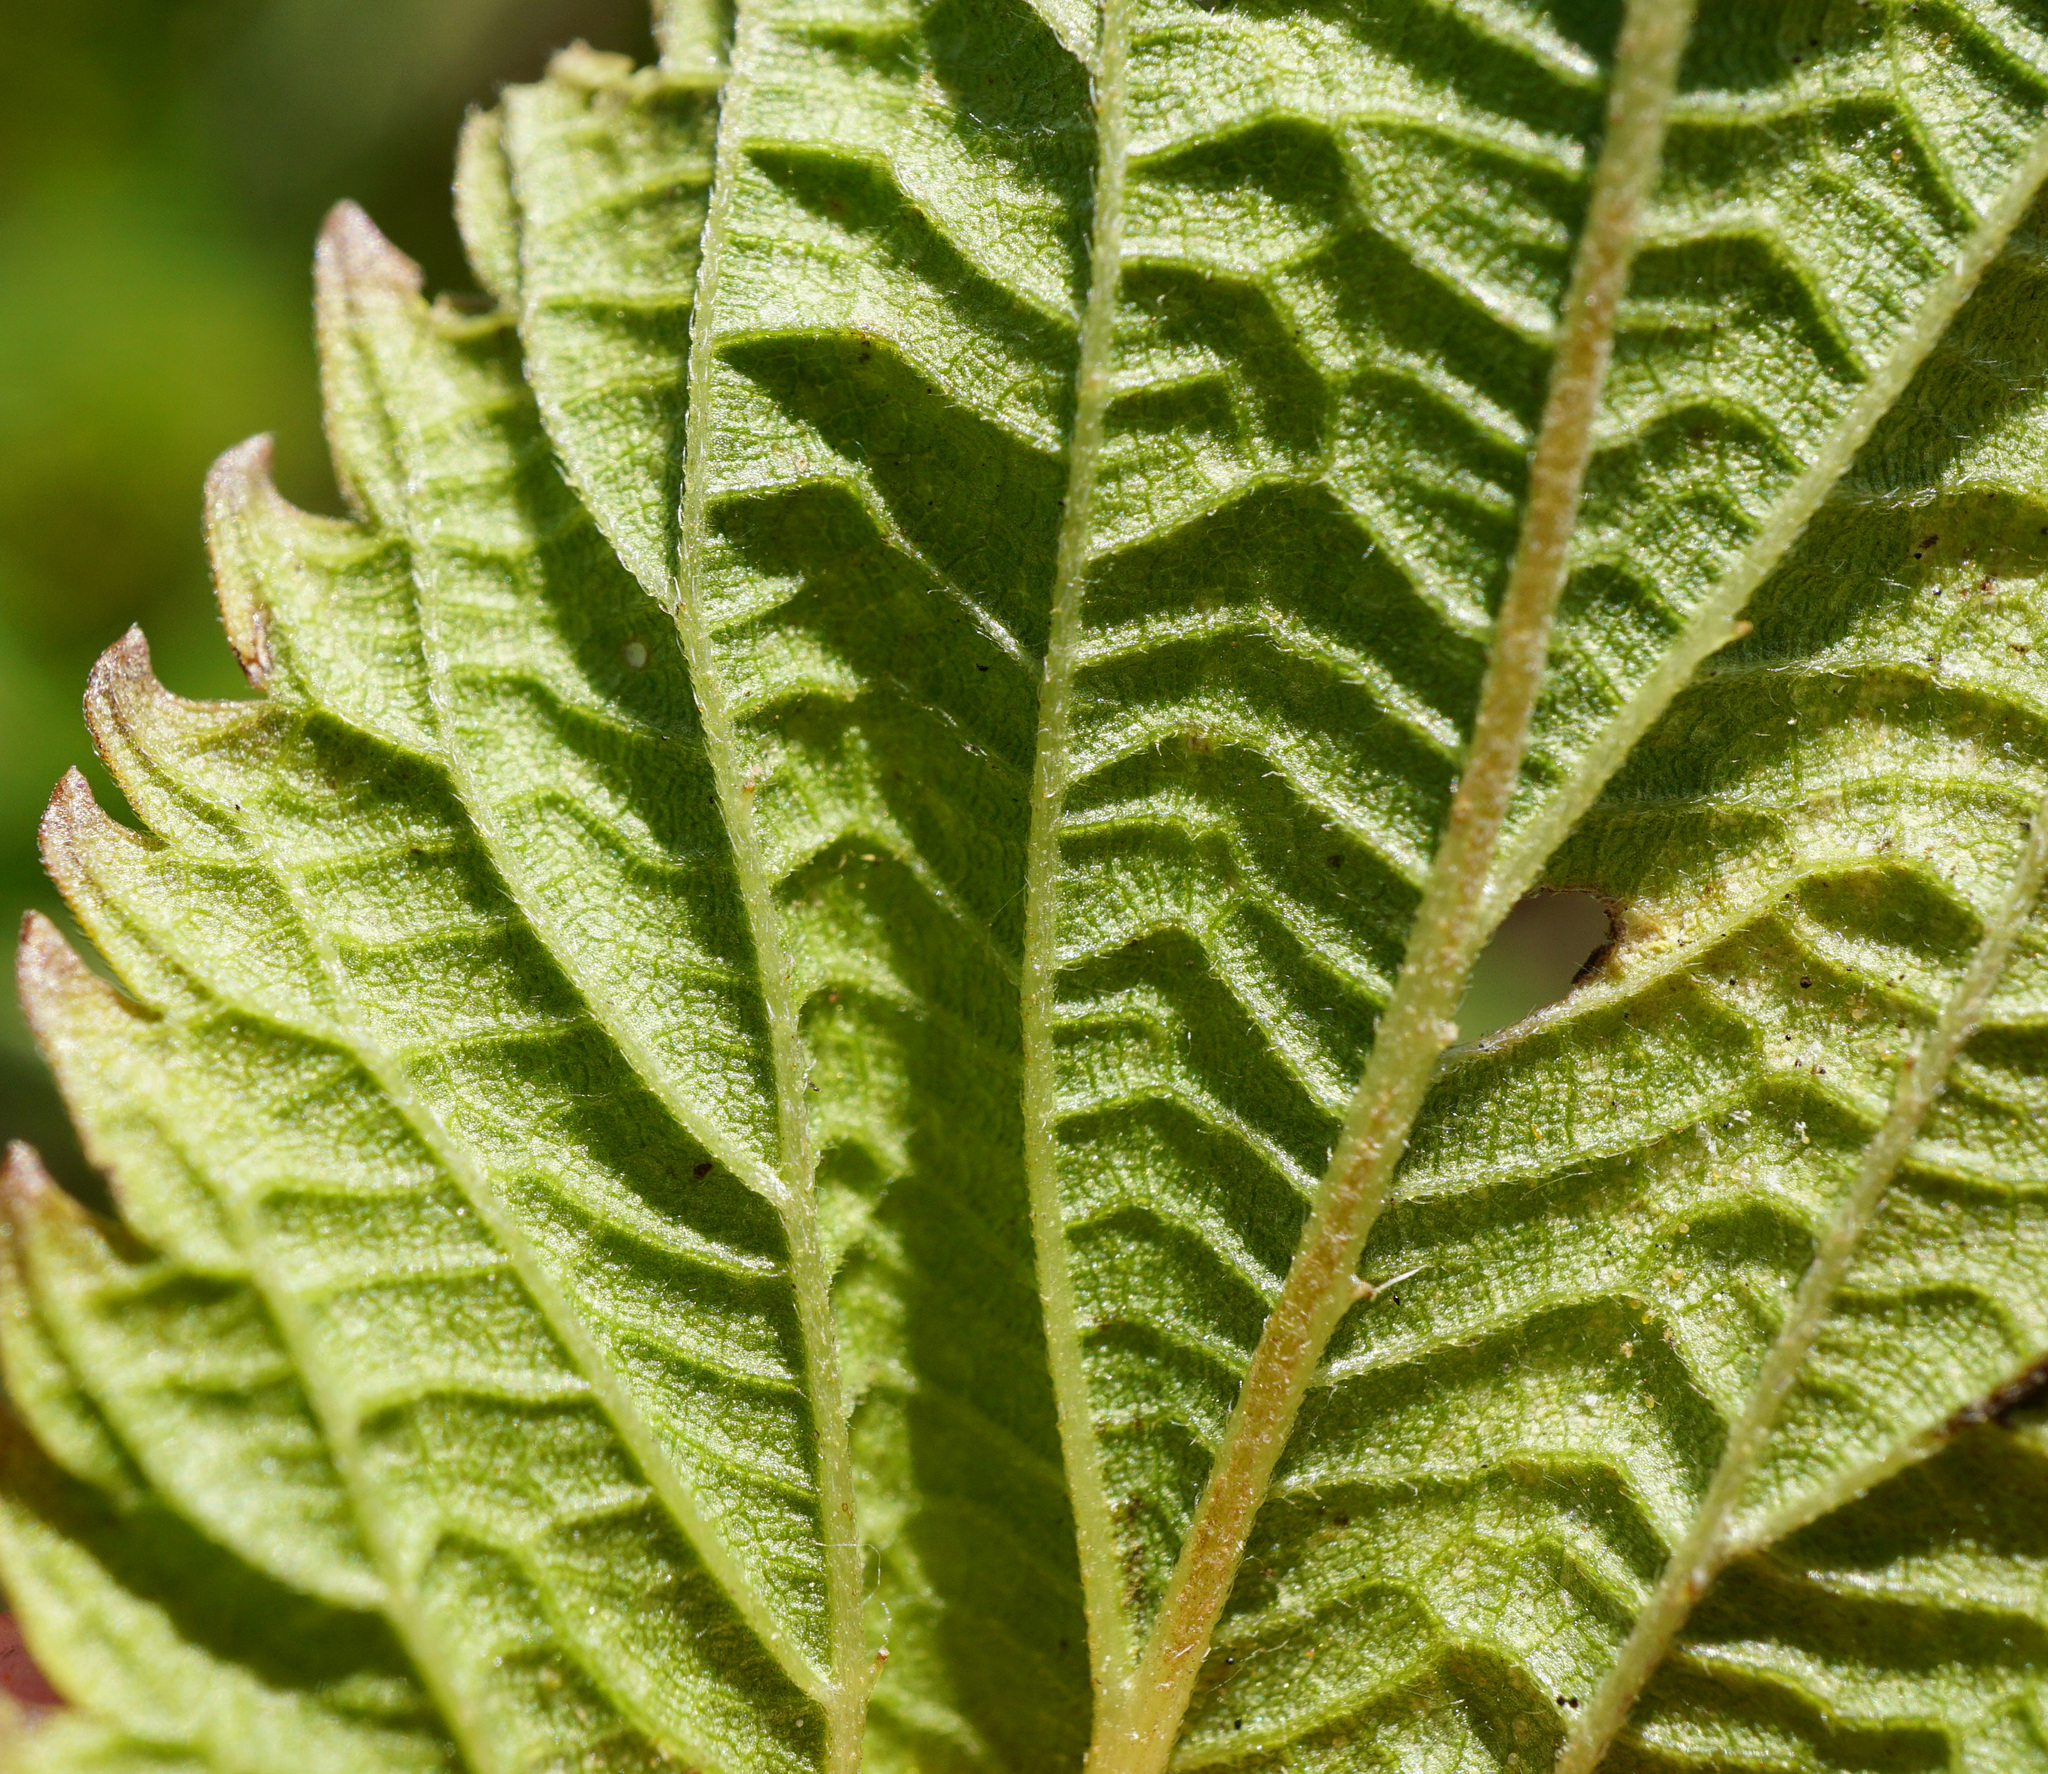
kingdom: Plantae
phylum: Tracheophyta
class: Magnoliopsida
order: Rosales
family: Urticaceae
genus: Urtica
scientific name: Urtica dioica
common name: Common nettle
